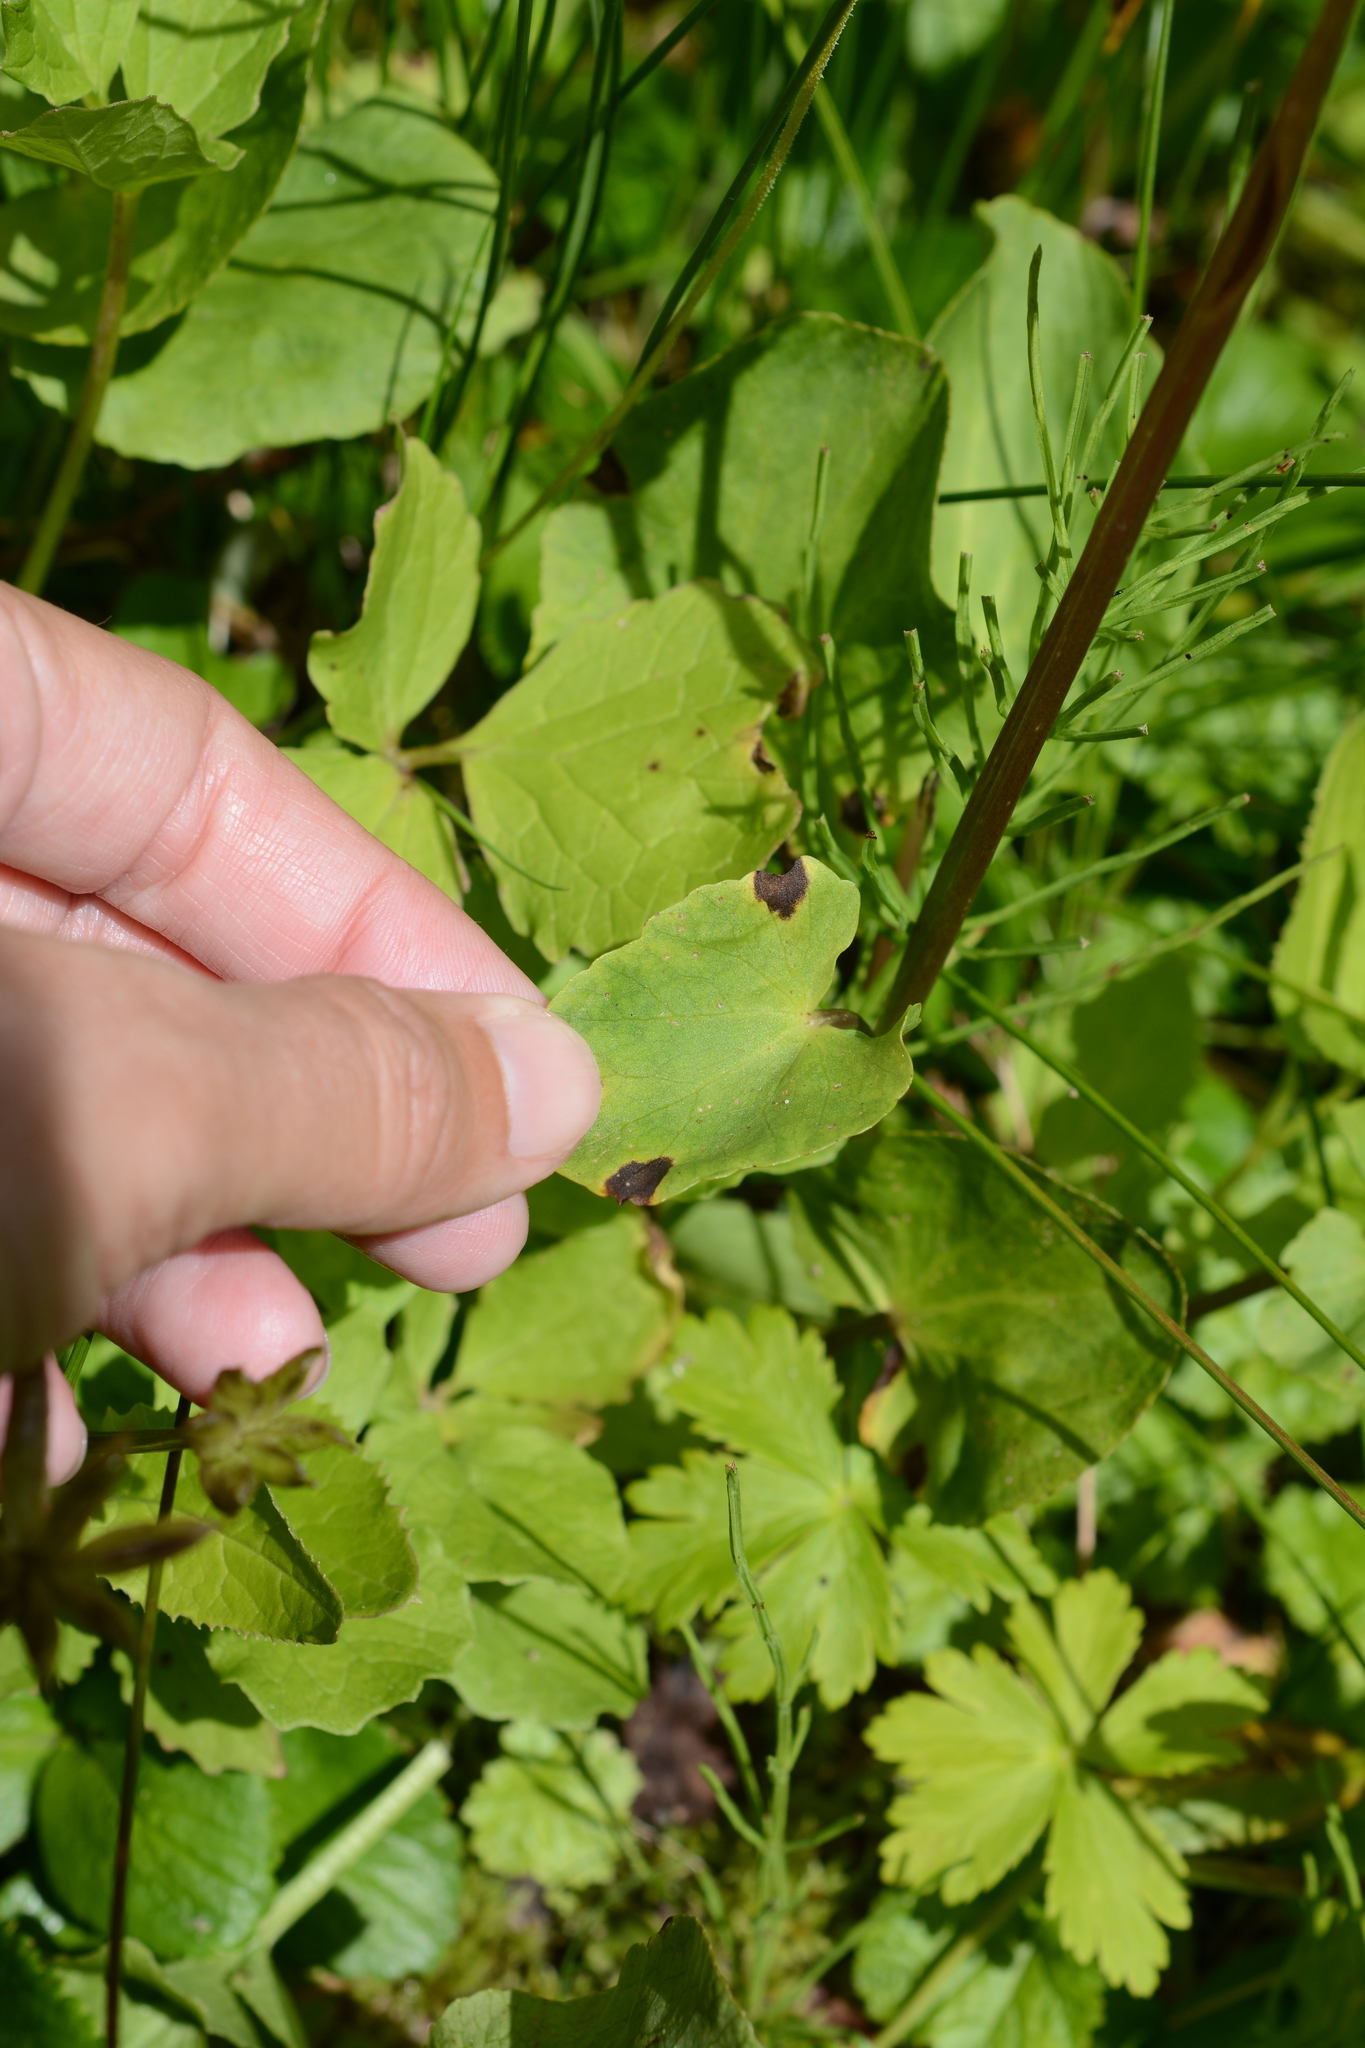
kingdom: Plantae
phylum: Tracheophyta
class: Magnoliopsida
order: Ranunculales
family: Ranunculaceae
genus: Caltha
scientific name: Caltha leptosepala
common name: Elkslip
